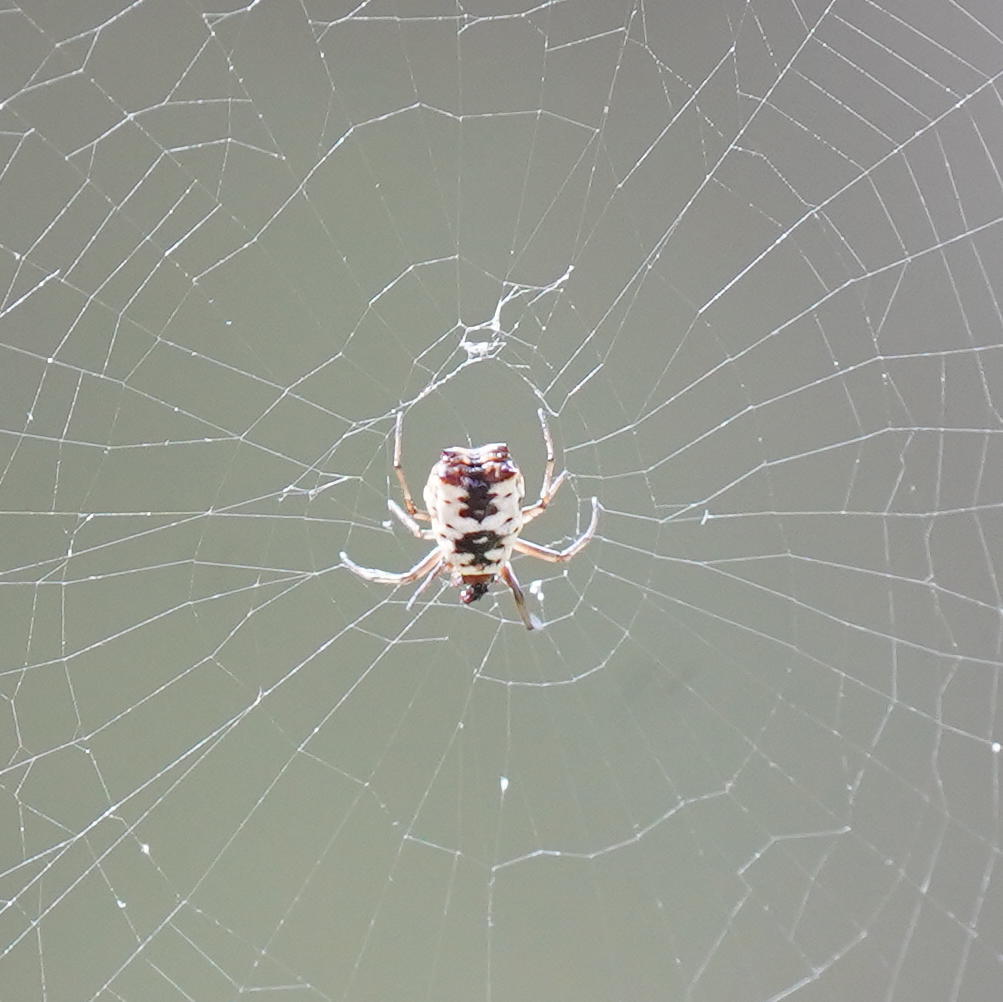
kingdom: Animalia
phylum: Arthropoda
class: Arachnida
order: Araneae
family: Araneidae
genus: Micrathena
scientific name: Micrathena mitrata
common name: Orb weavers
